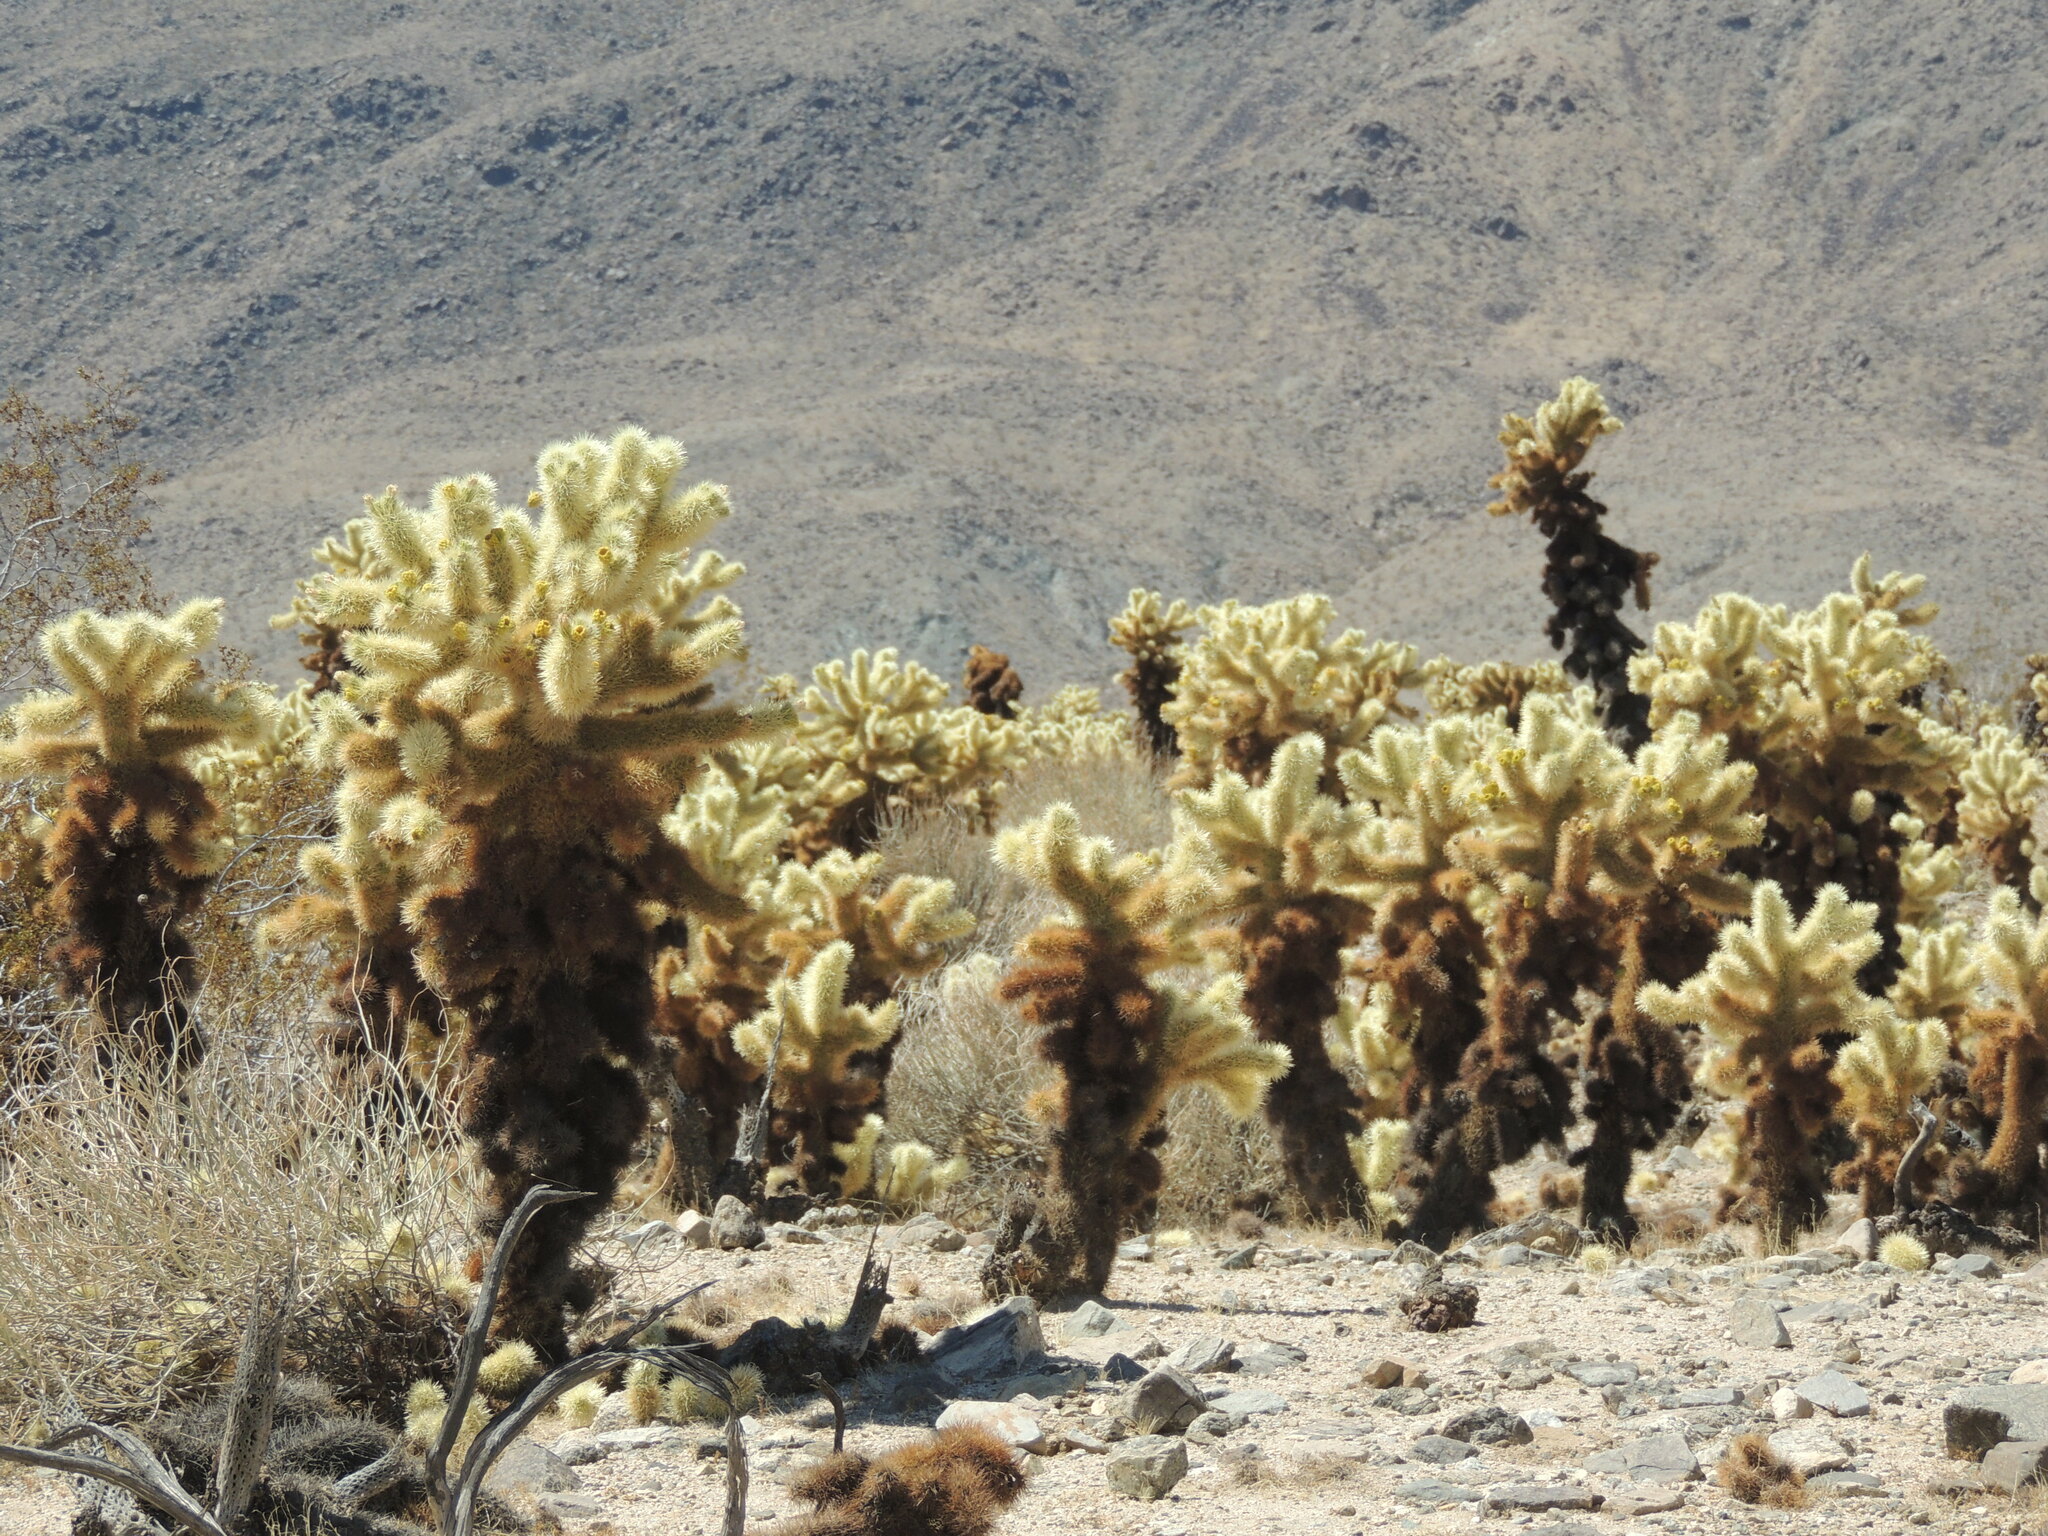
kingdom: Plantae
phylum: Tracheophyta
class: Magnoliopsida
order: Caryophyllales
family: Cactaceae
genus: Cylindropuntia
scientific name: Cylindropuntia fosbergii
